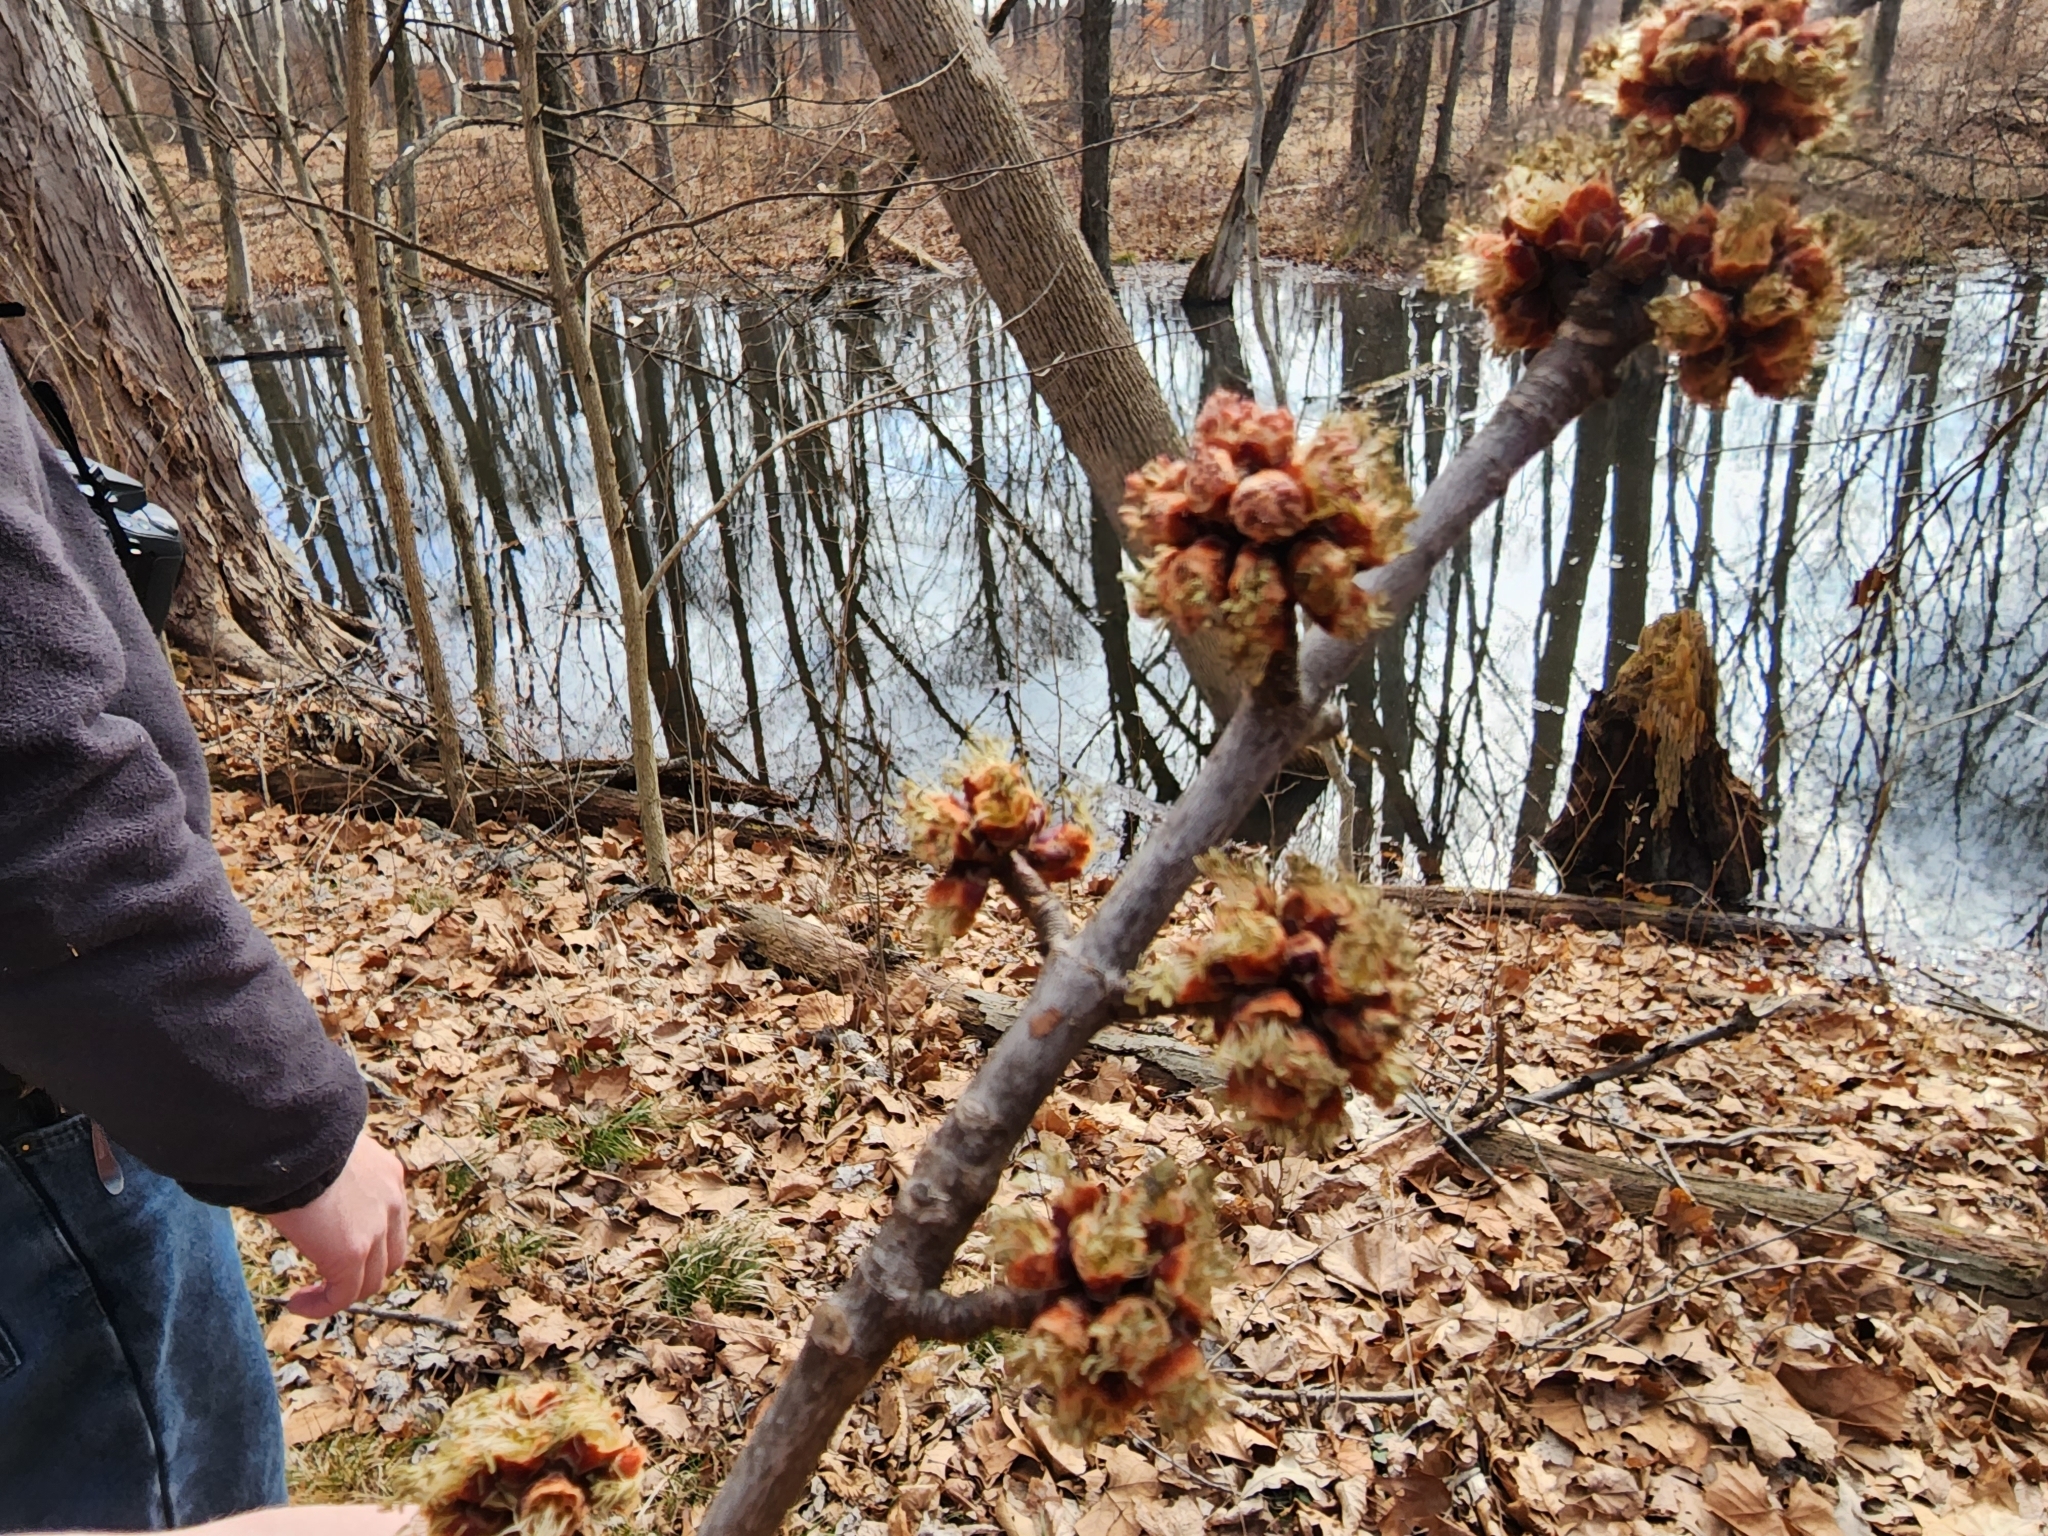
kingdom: Plantae
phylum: Tracheophyta
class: Magnoliopsida
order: Sapindales
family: Sapindaceae
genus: Acer
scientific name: Acer saccharinum
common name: Silver maple
